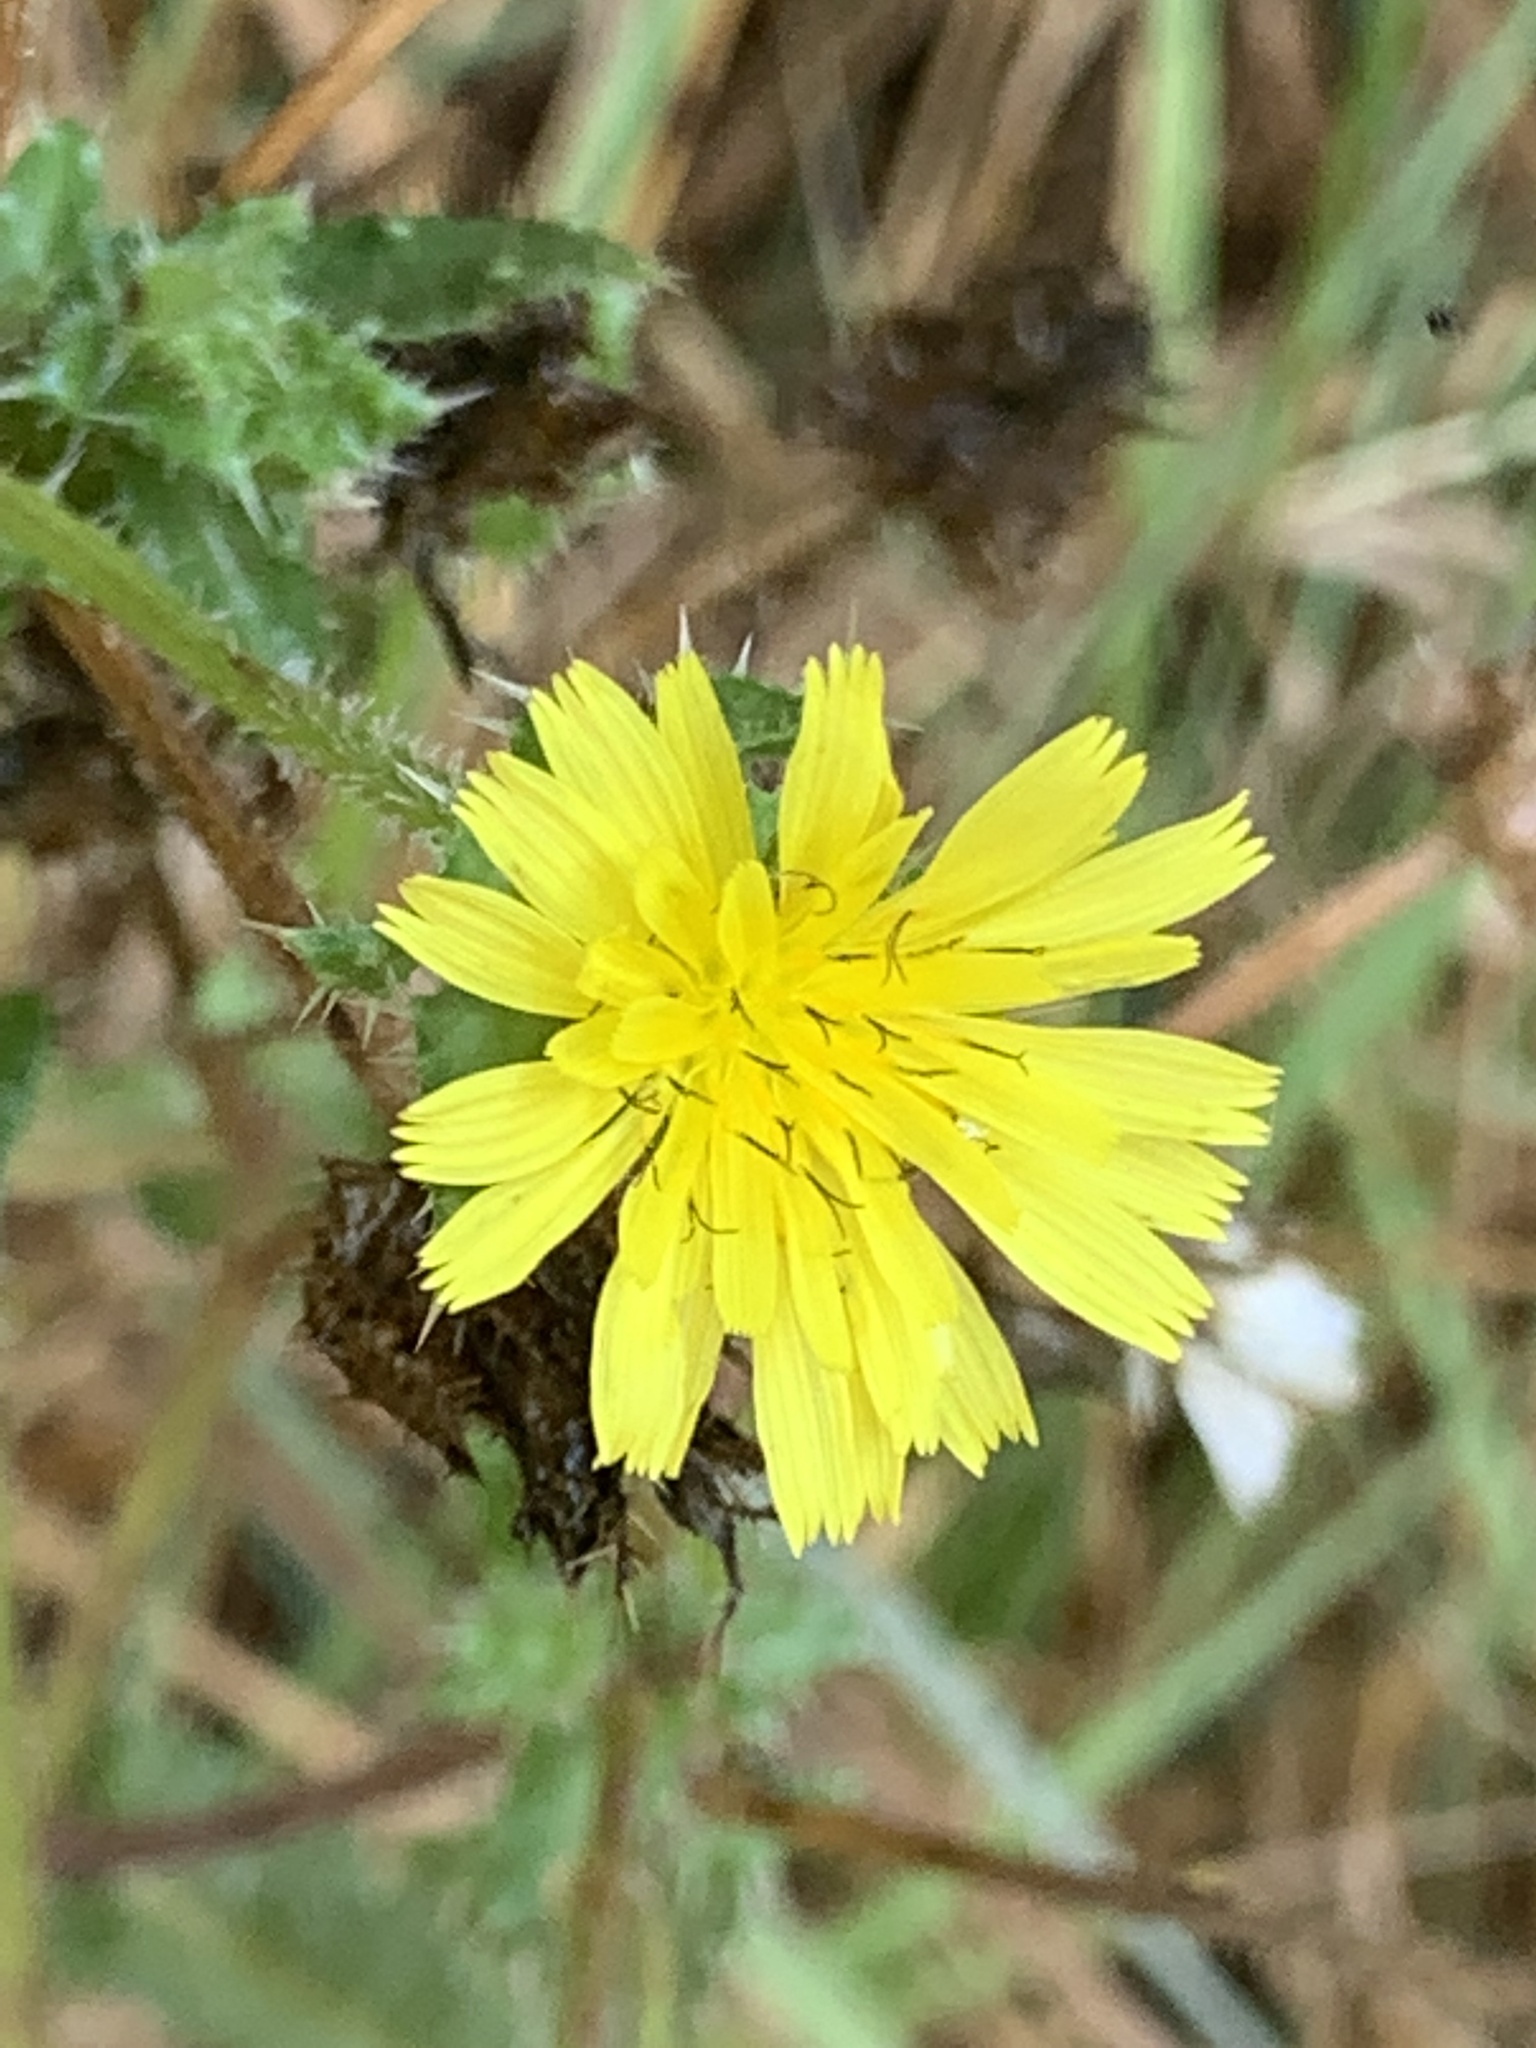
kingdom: Plantae
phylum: Tracheophyta
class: Magnoliopsida
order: Asterales
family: Asteraceae
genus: Helminthotheca
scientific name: Helminthotheca echioides
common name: Ox-tongue
